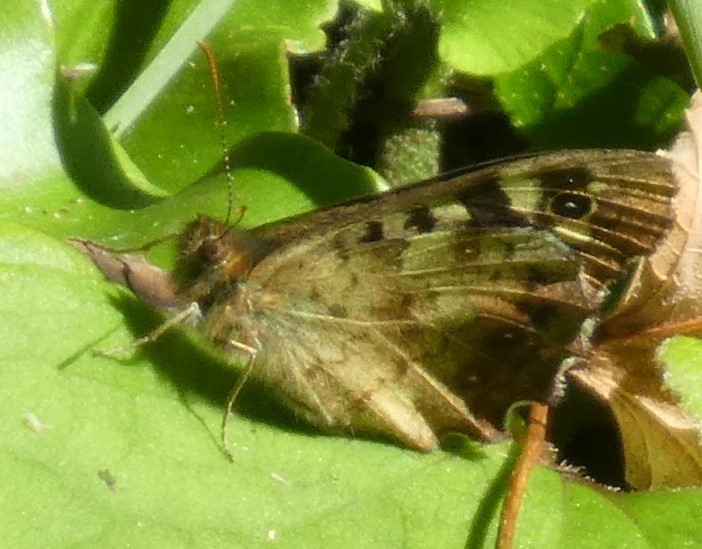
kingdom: Animalia
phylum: Arthropoda
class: Insecta
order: Lepidoptera
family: Nymphalidae
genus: Pararge
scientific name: Pararge aegeria
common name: Speckled wood
